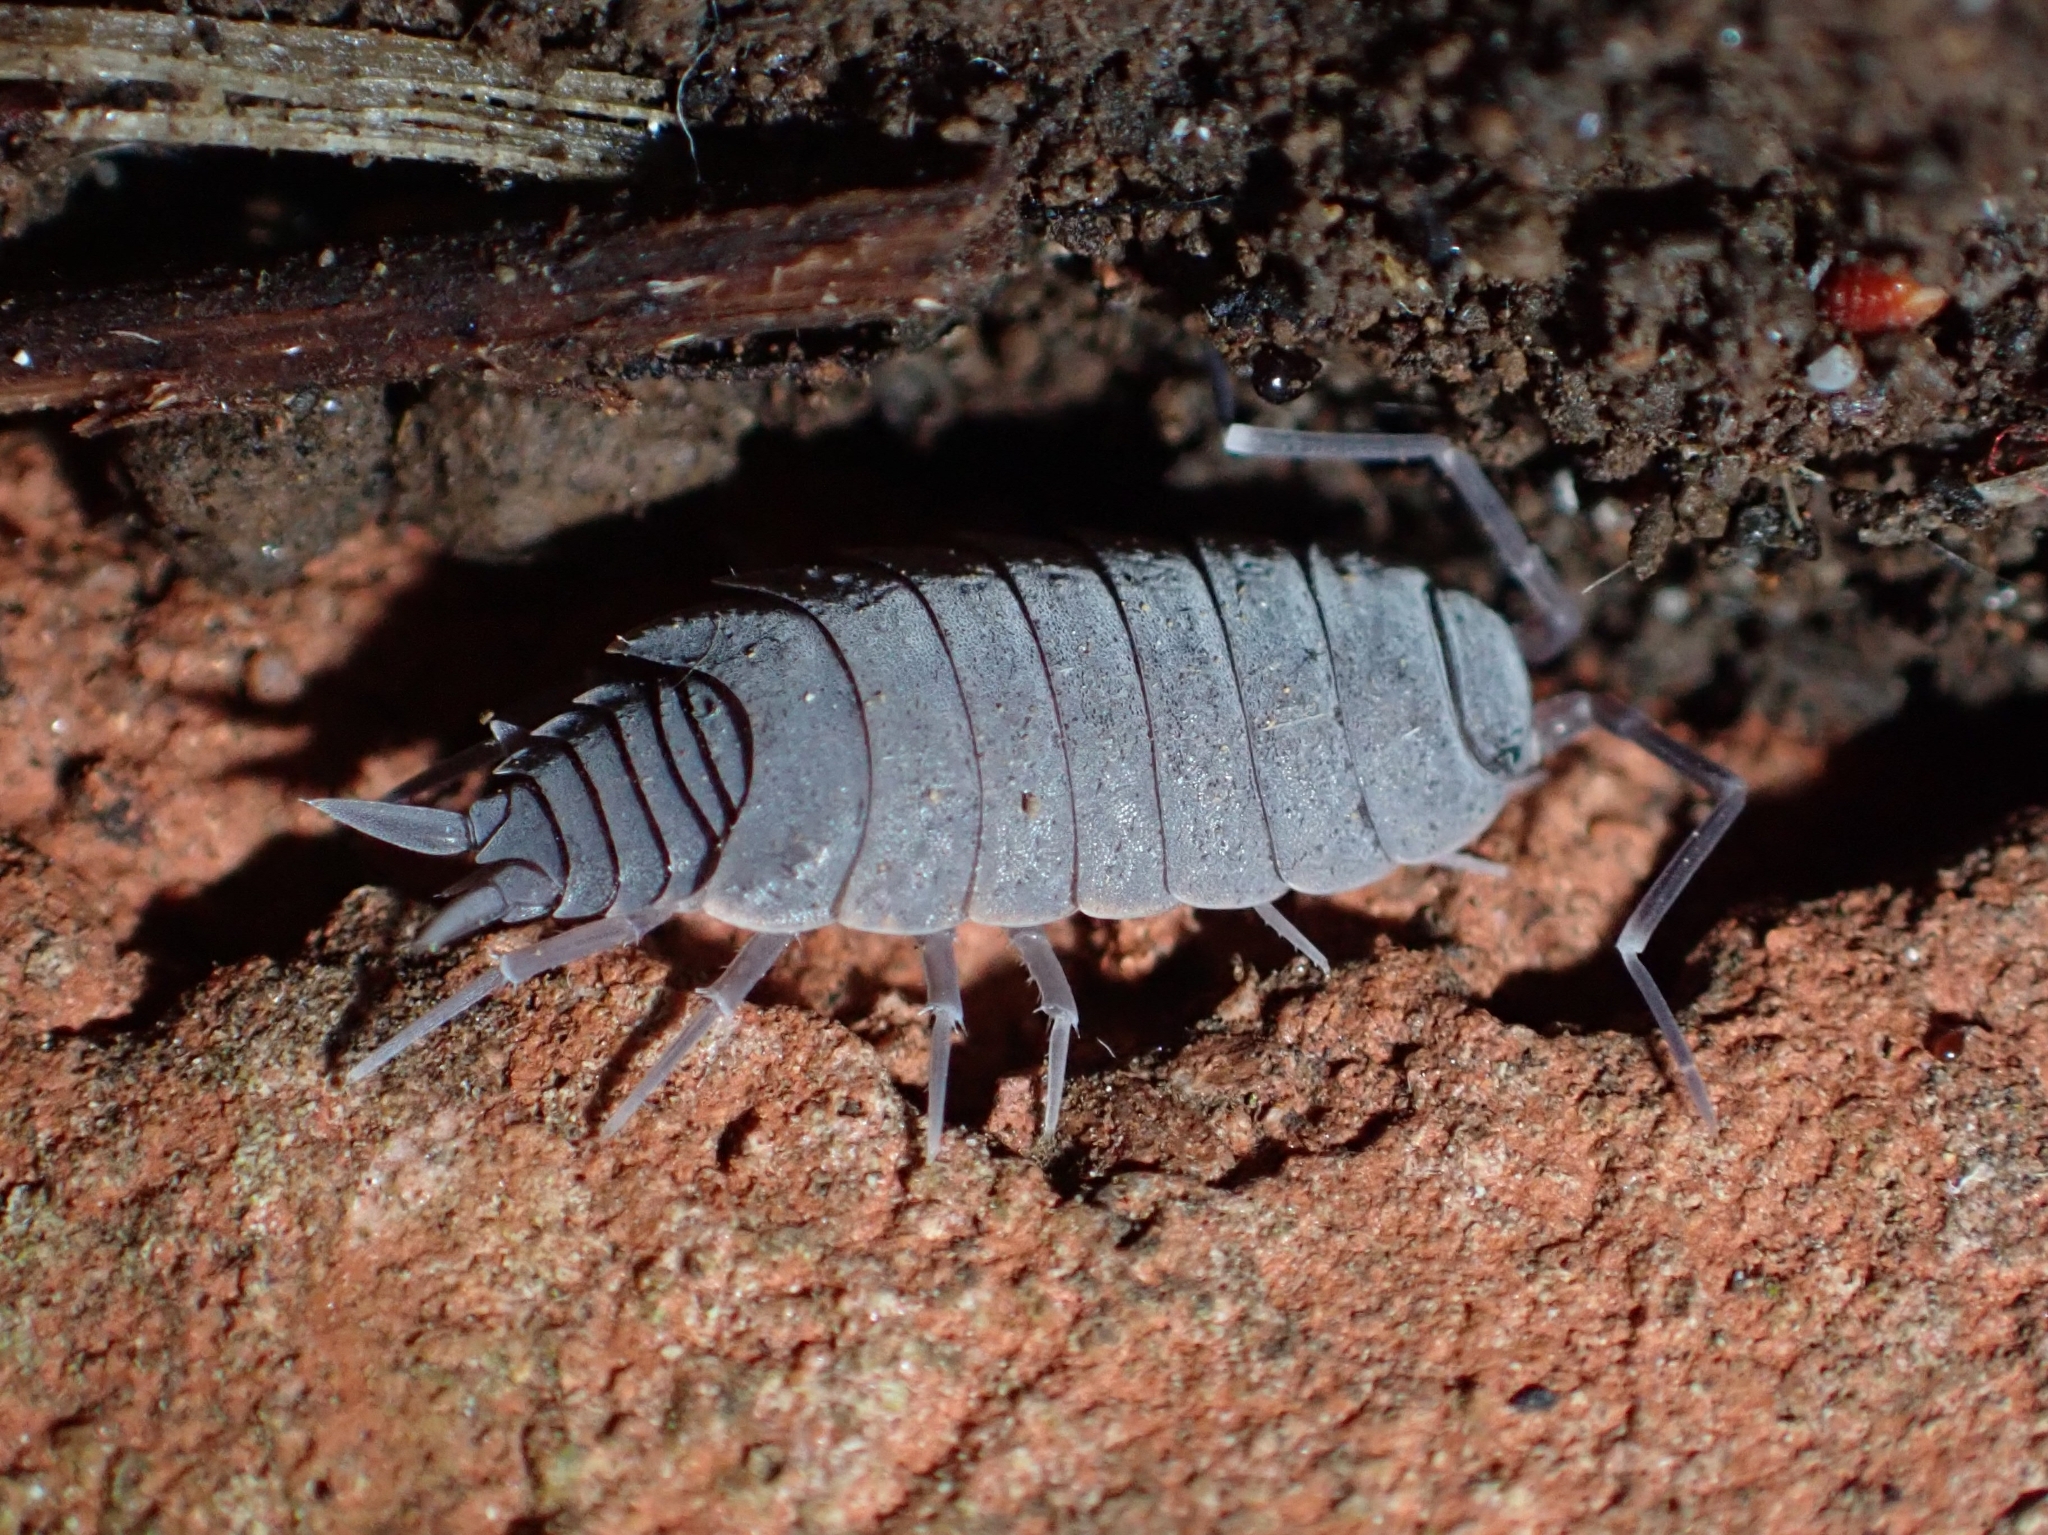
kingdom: Animalia
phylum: Arthropoda
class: Malacostraca
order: Isopoda
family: Porcellionidae
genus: Porcellionides
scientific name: Porcellionides pruinosus
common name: Plum woodlouse
